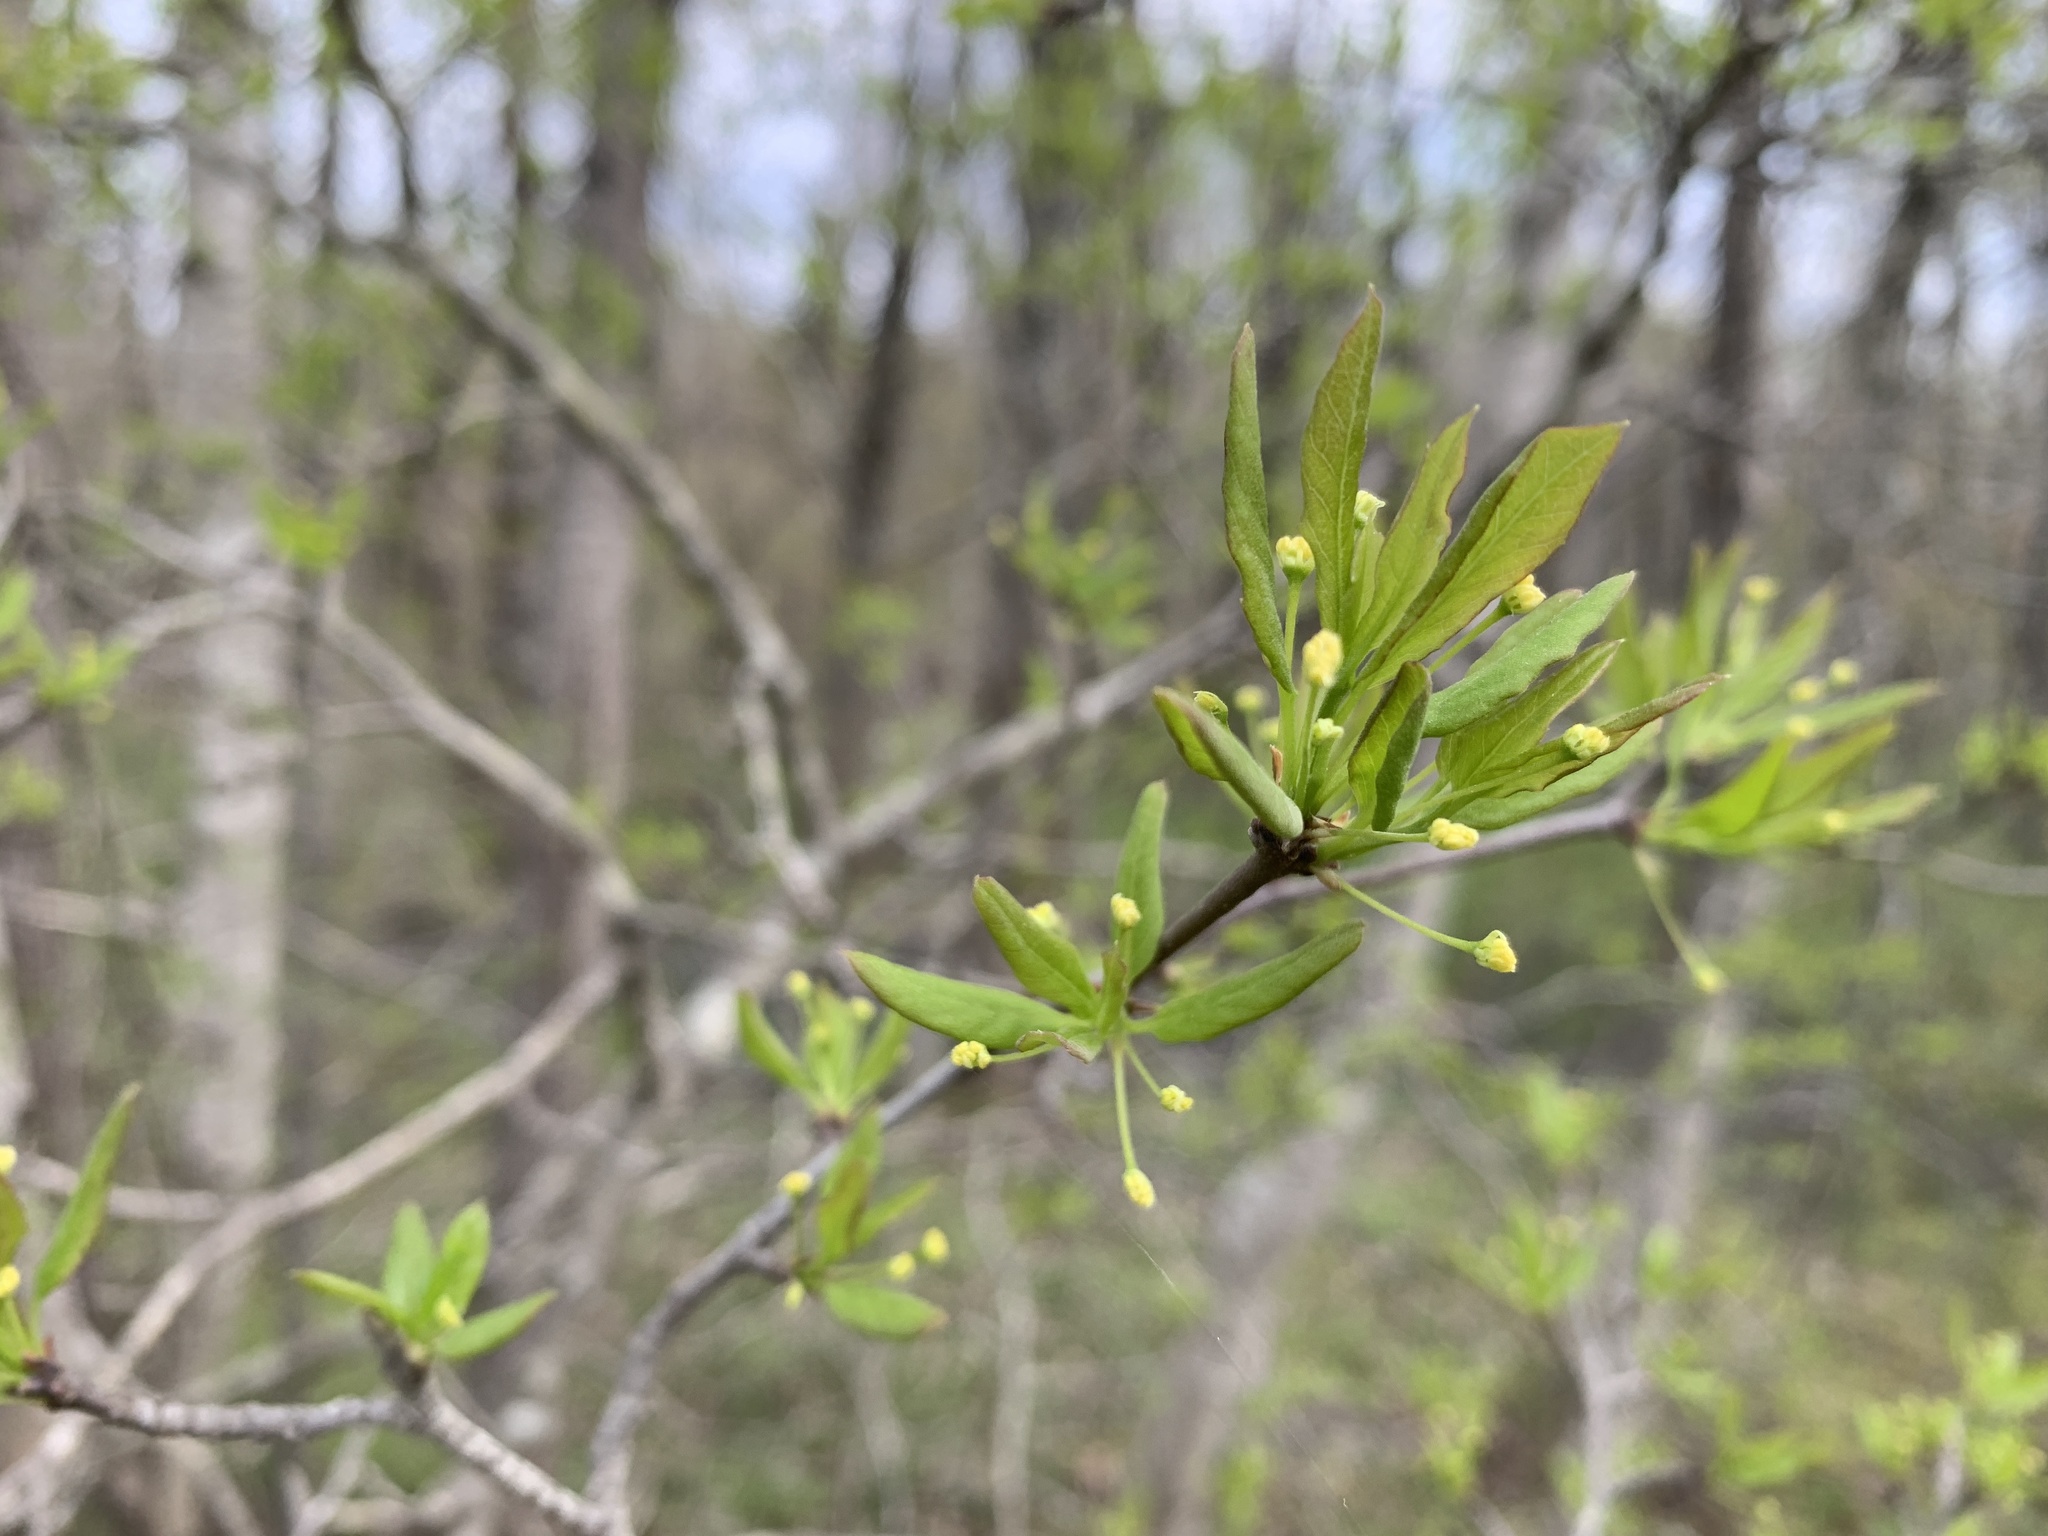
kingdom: Plantae
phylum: Tracheophyta
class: Magnoliopsida
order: Aquifoliales
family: Aquifoliaceae
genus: Ilex
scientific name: Ilex mucronata
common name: Catberry
